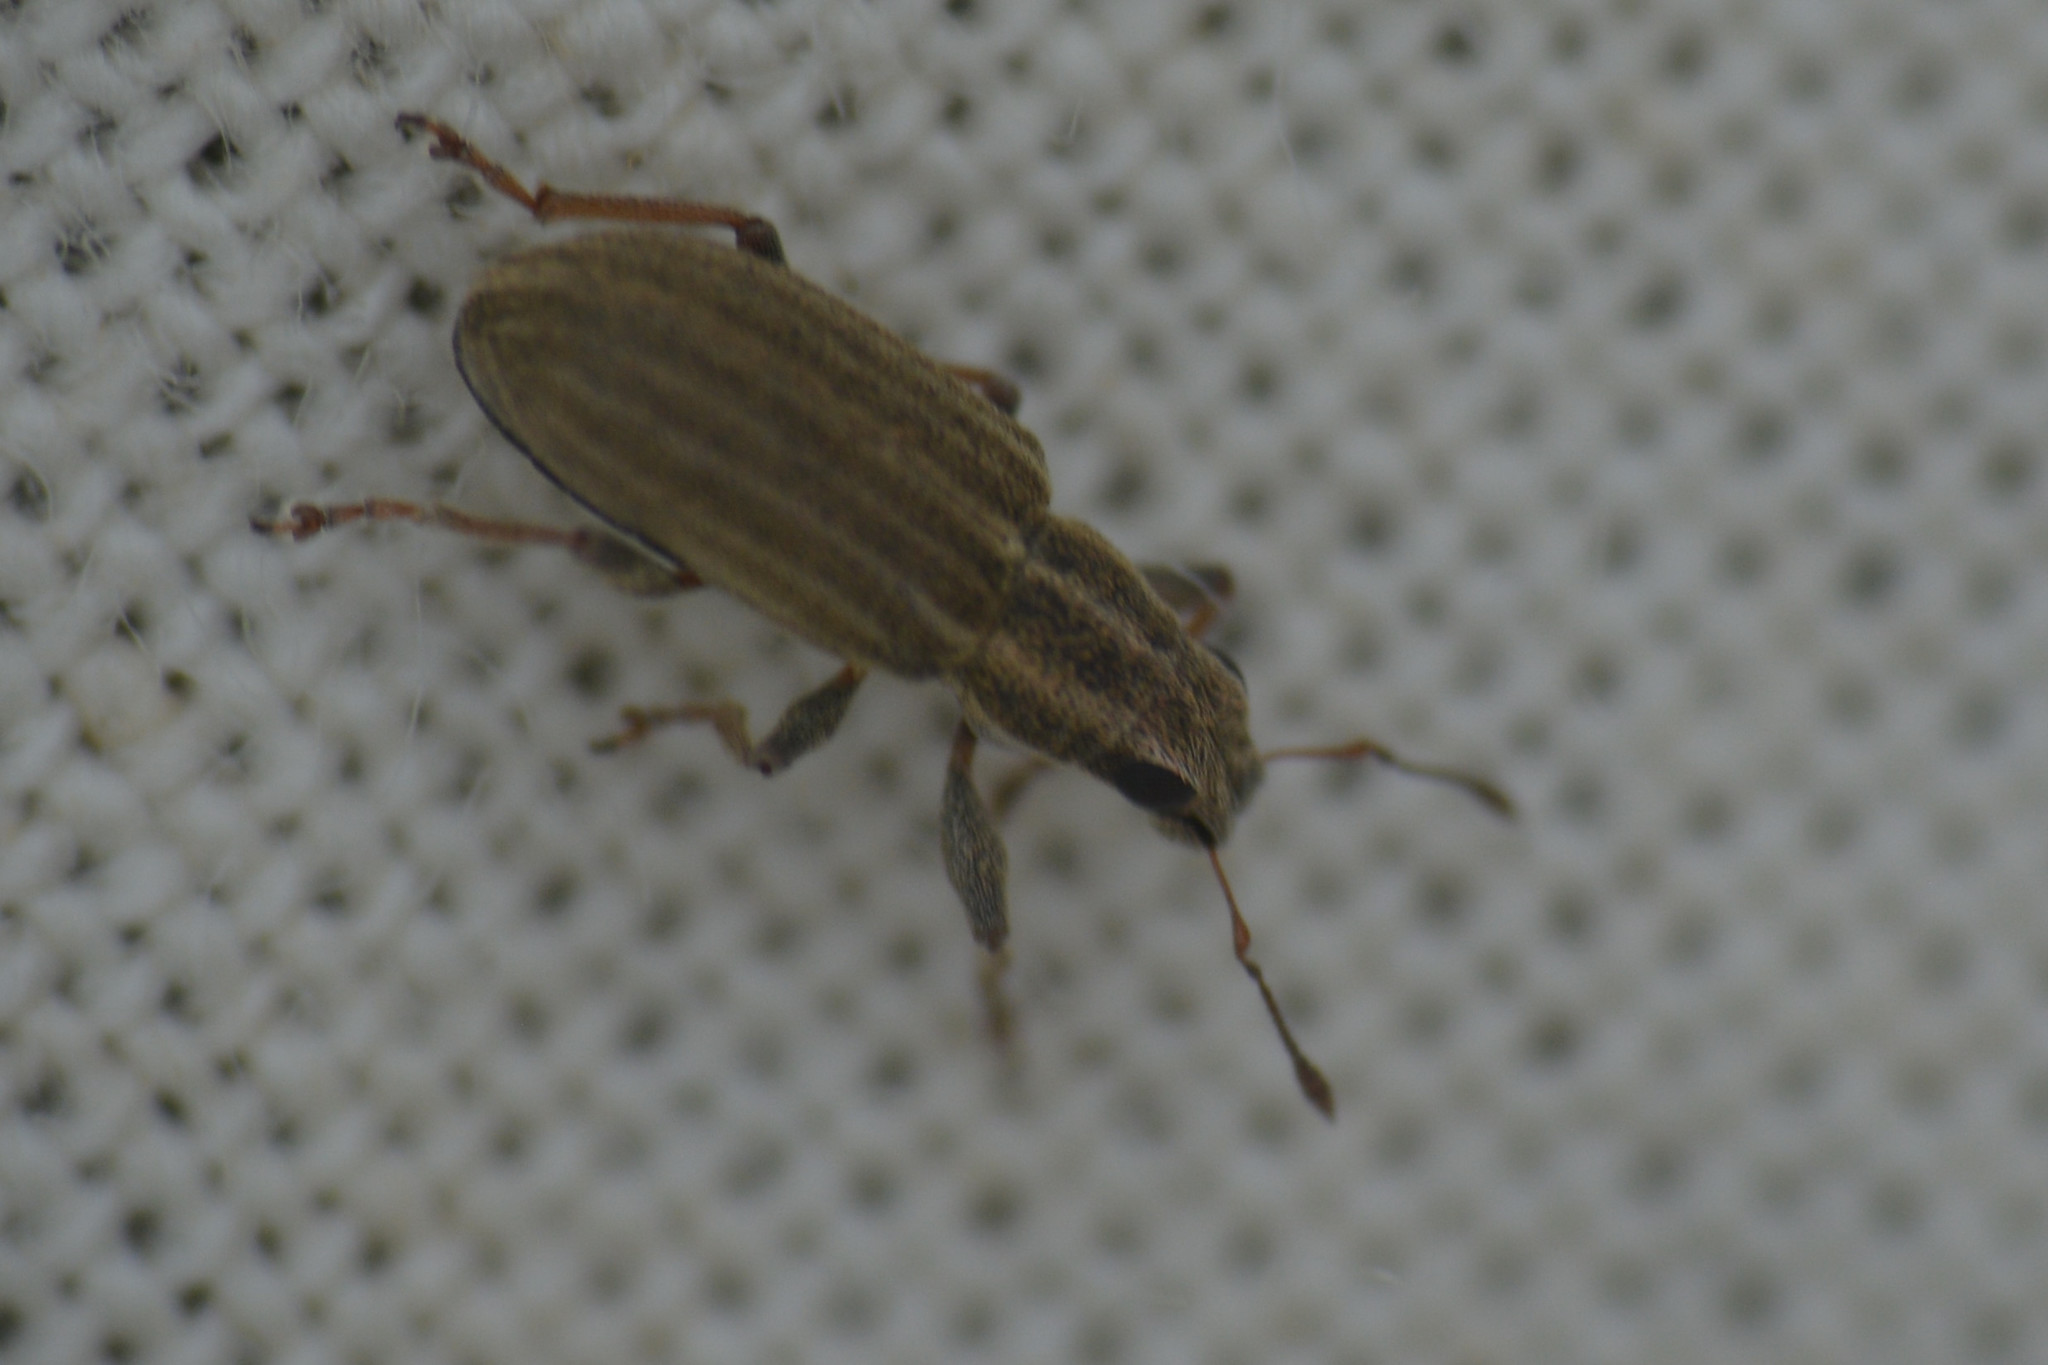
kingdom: Animalia
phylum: Arthropoda
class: Insecta
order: Coleoptera
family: Curculionidae
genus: Sitona
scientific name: Sitona lineatus
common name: Weevil
